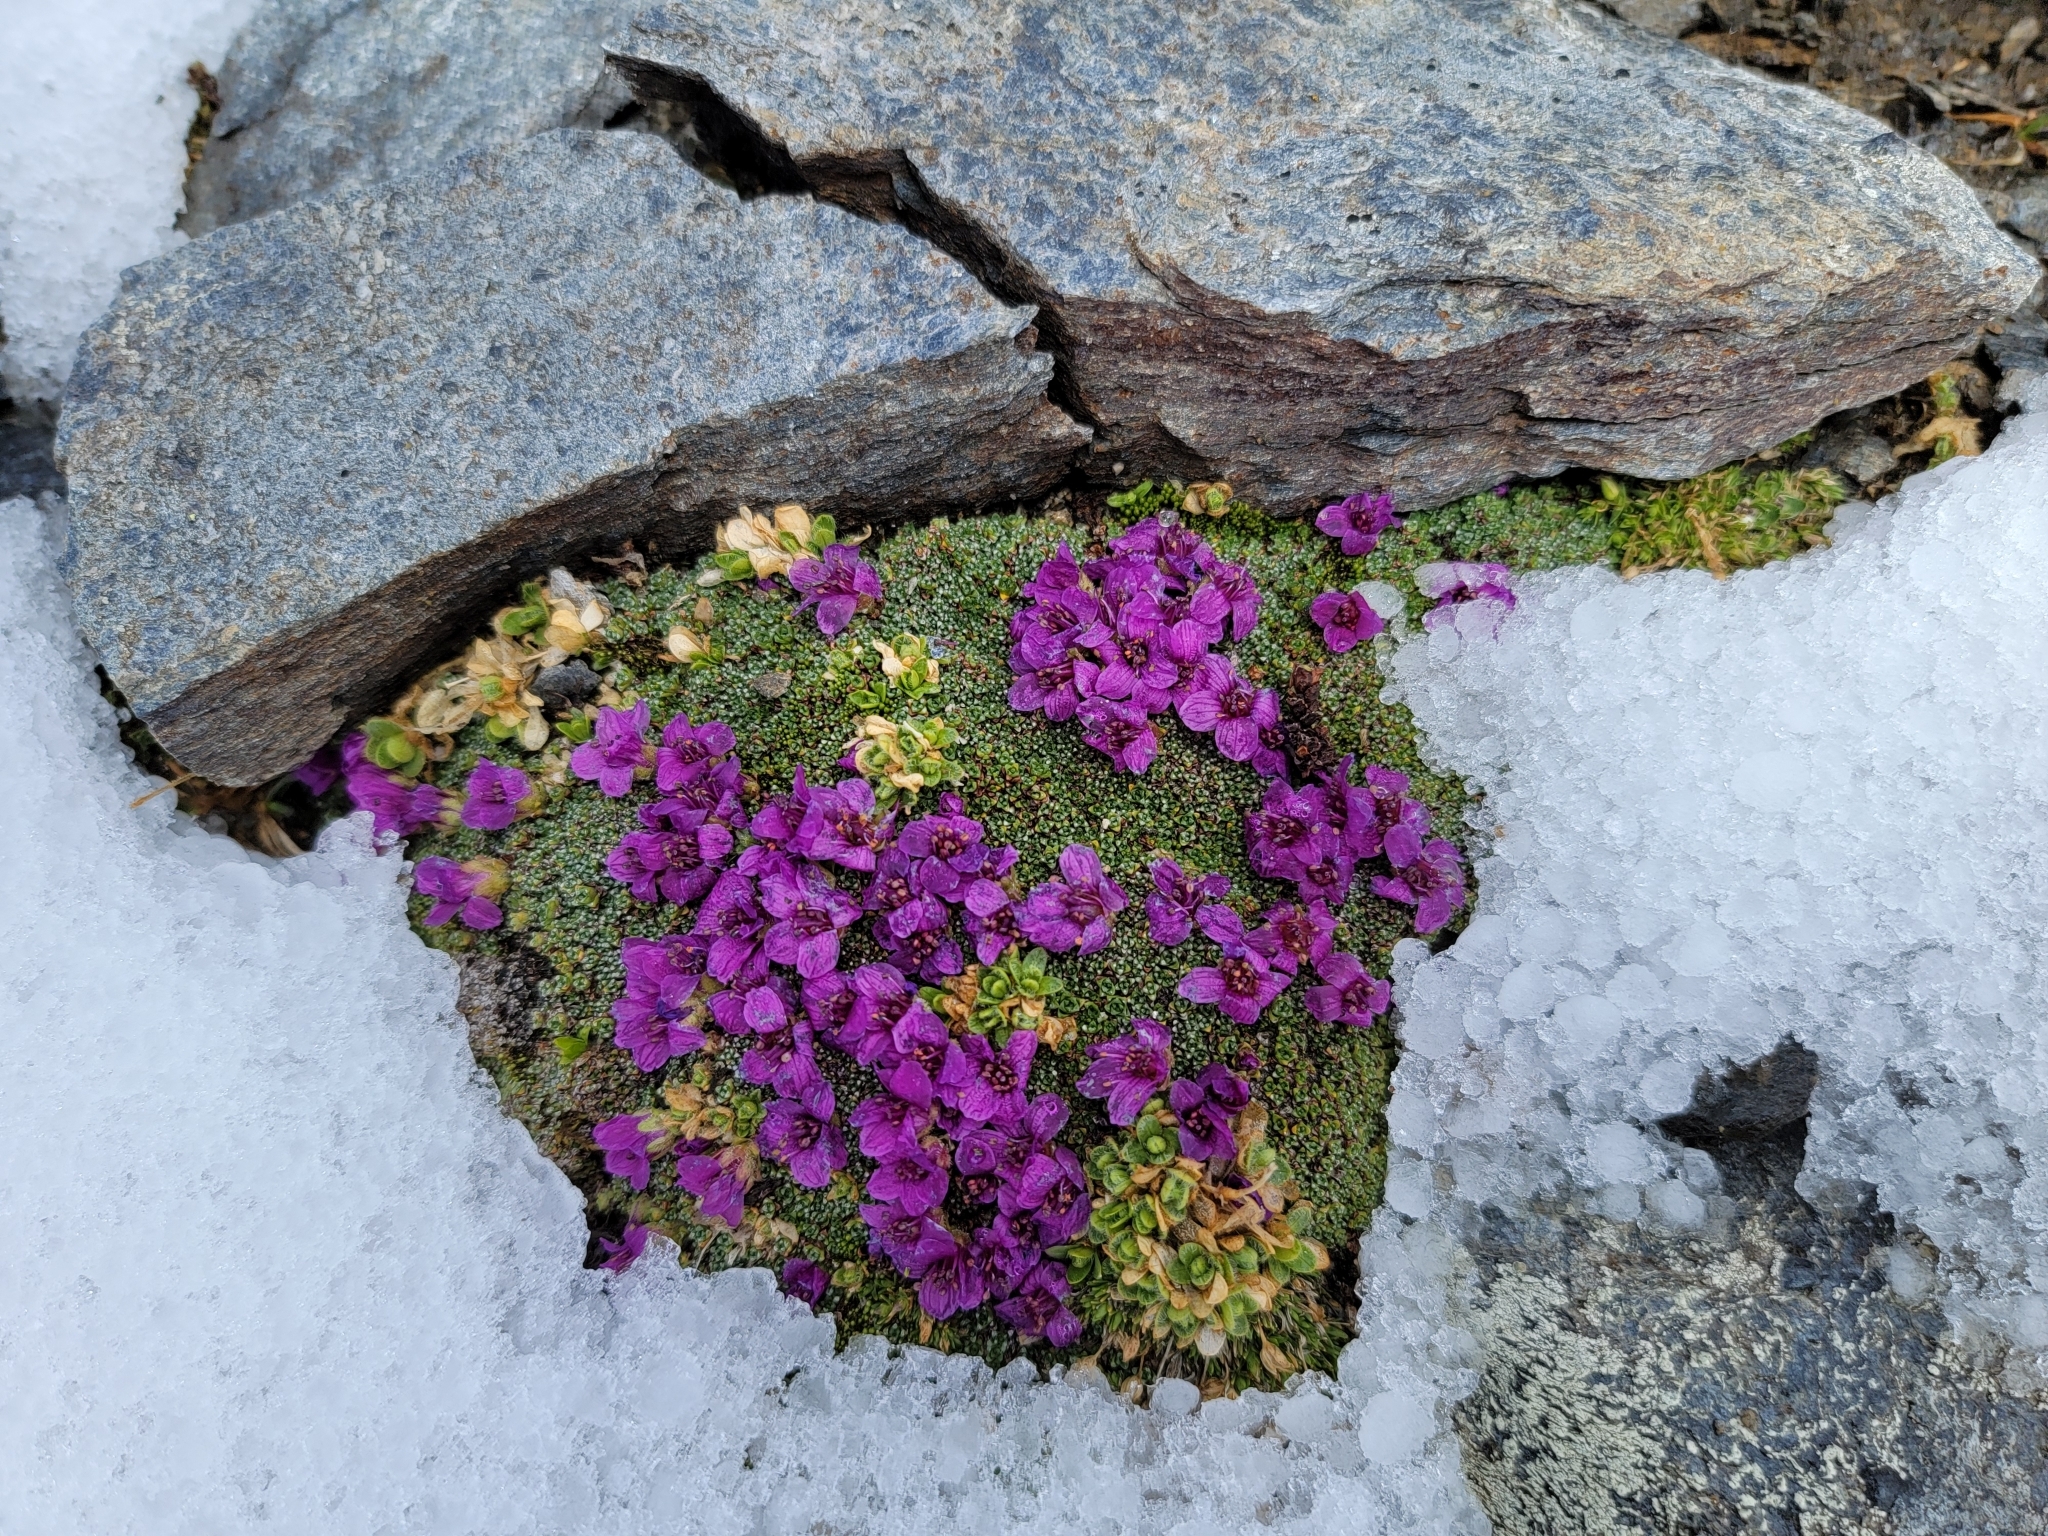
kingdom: Plantae
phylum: Tracheophyta
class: Magnoliopsida
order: Saxifragales
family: Saxifragaceae
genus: Saxifraga
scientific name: Saxifraga oppositifolia
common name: Purple saxifrage
